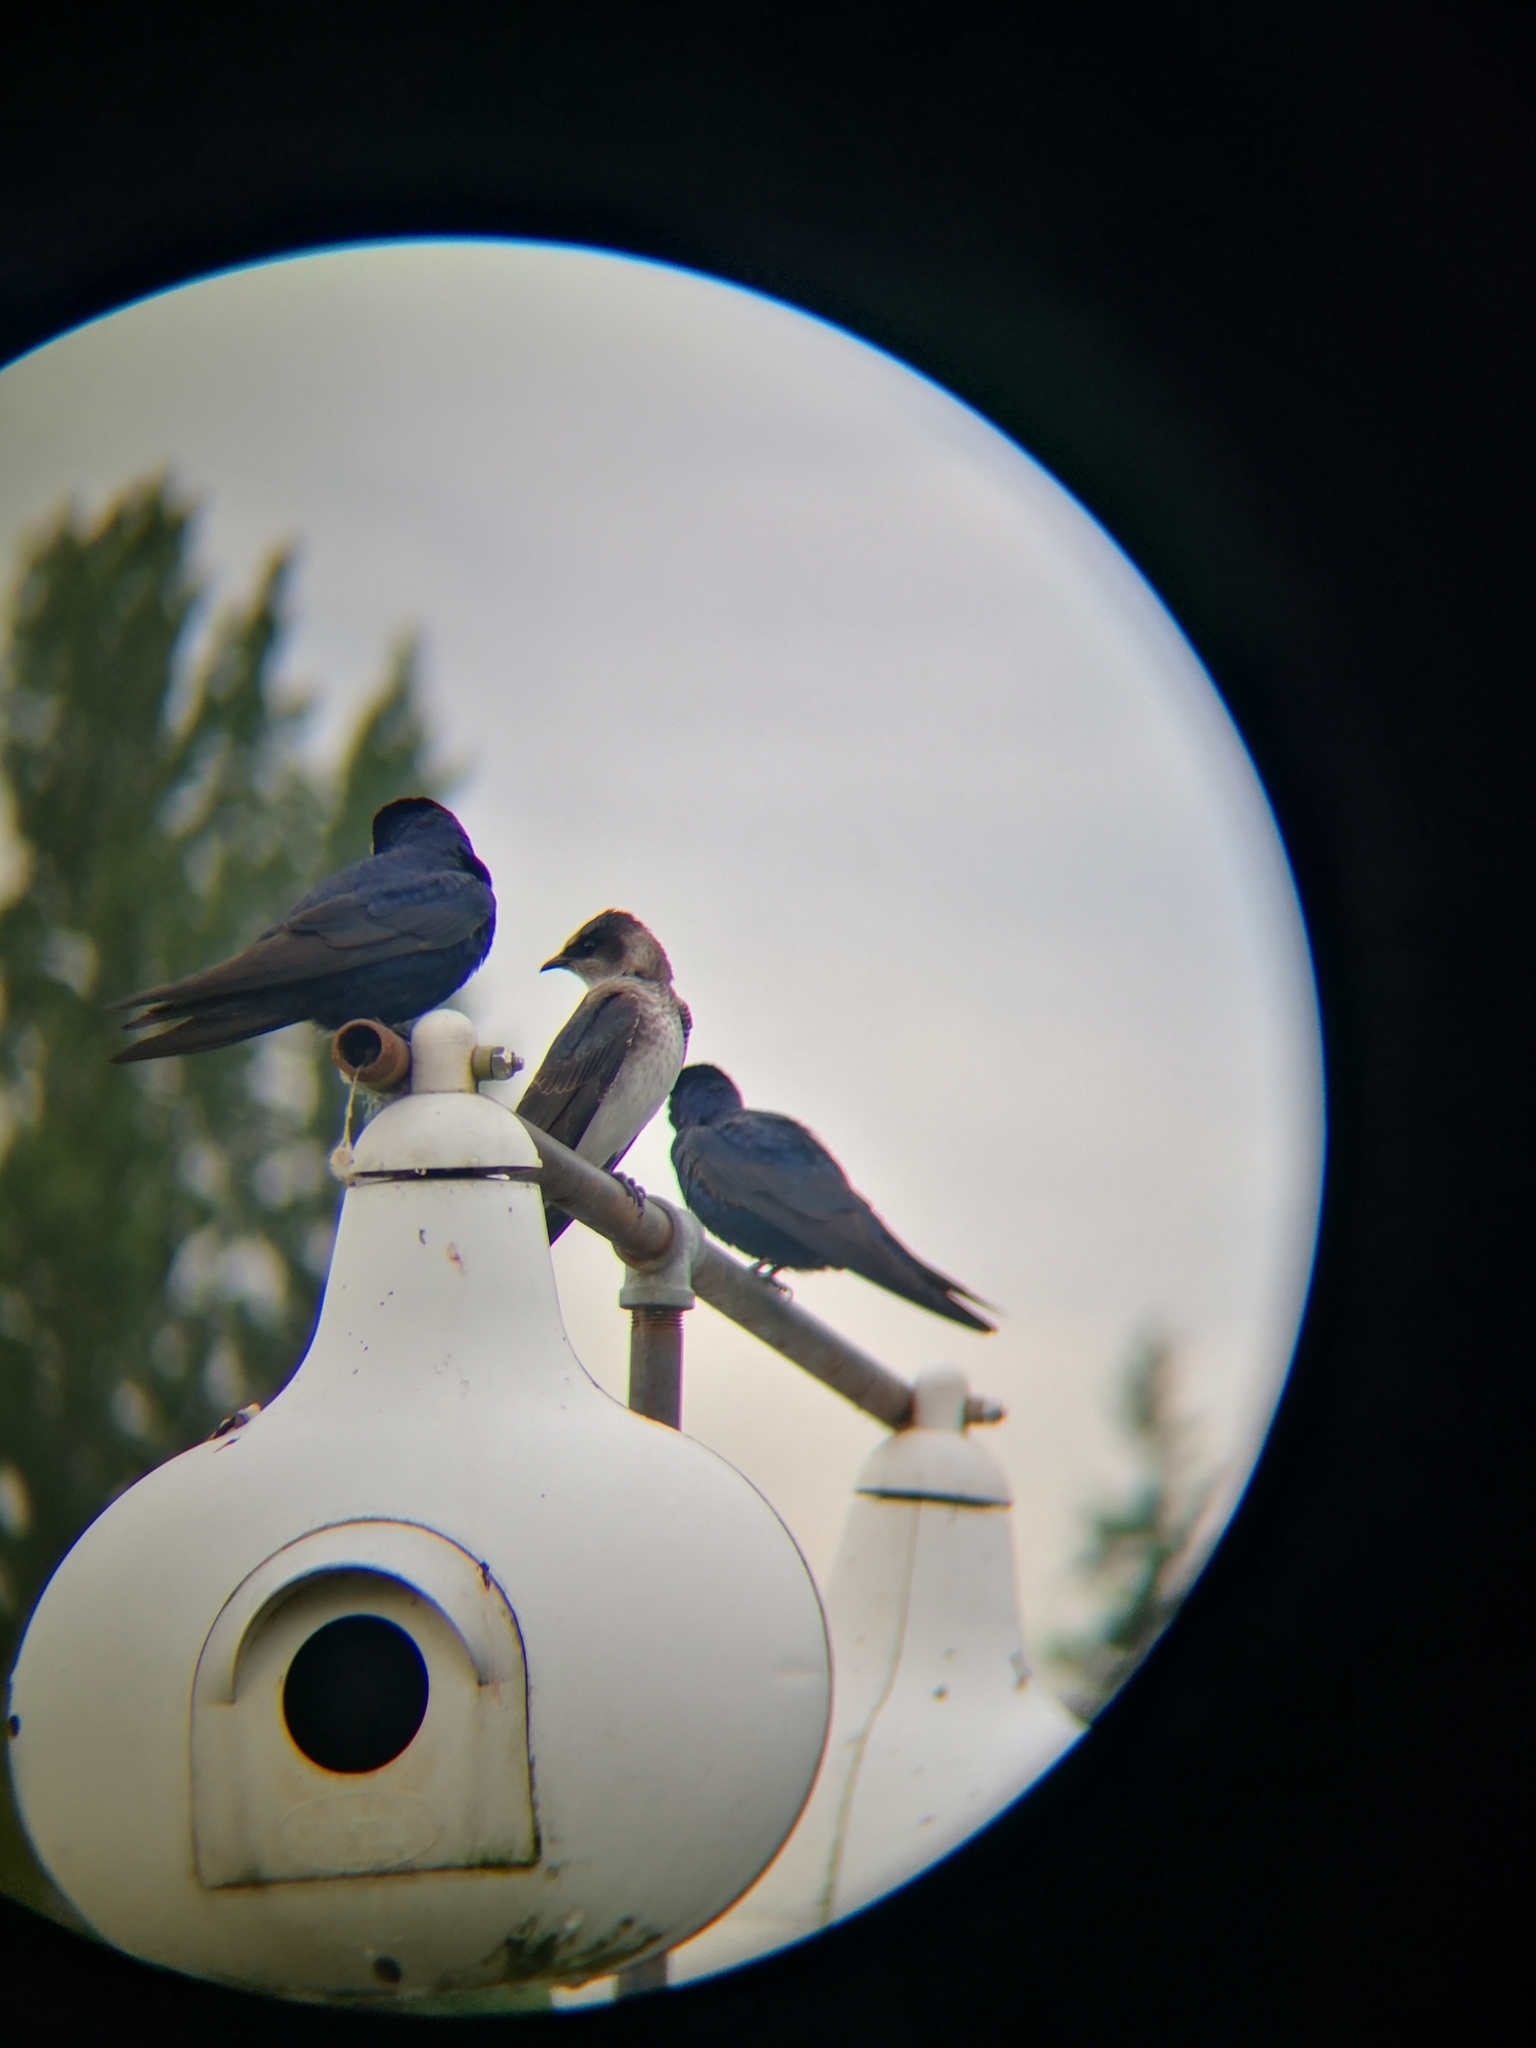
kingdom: Animalia
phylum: Chordata
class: Aves
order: Passeriformes
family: Hirundinidae
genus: Progne
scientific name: Progne subis
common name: Purple martin
